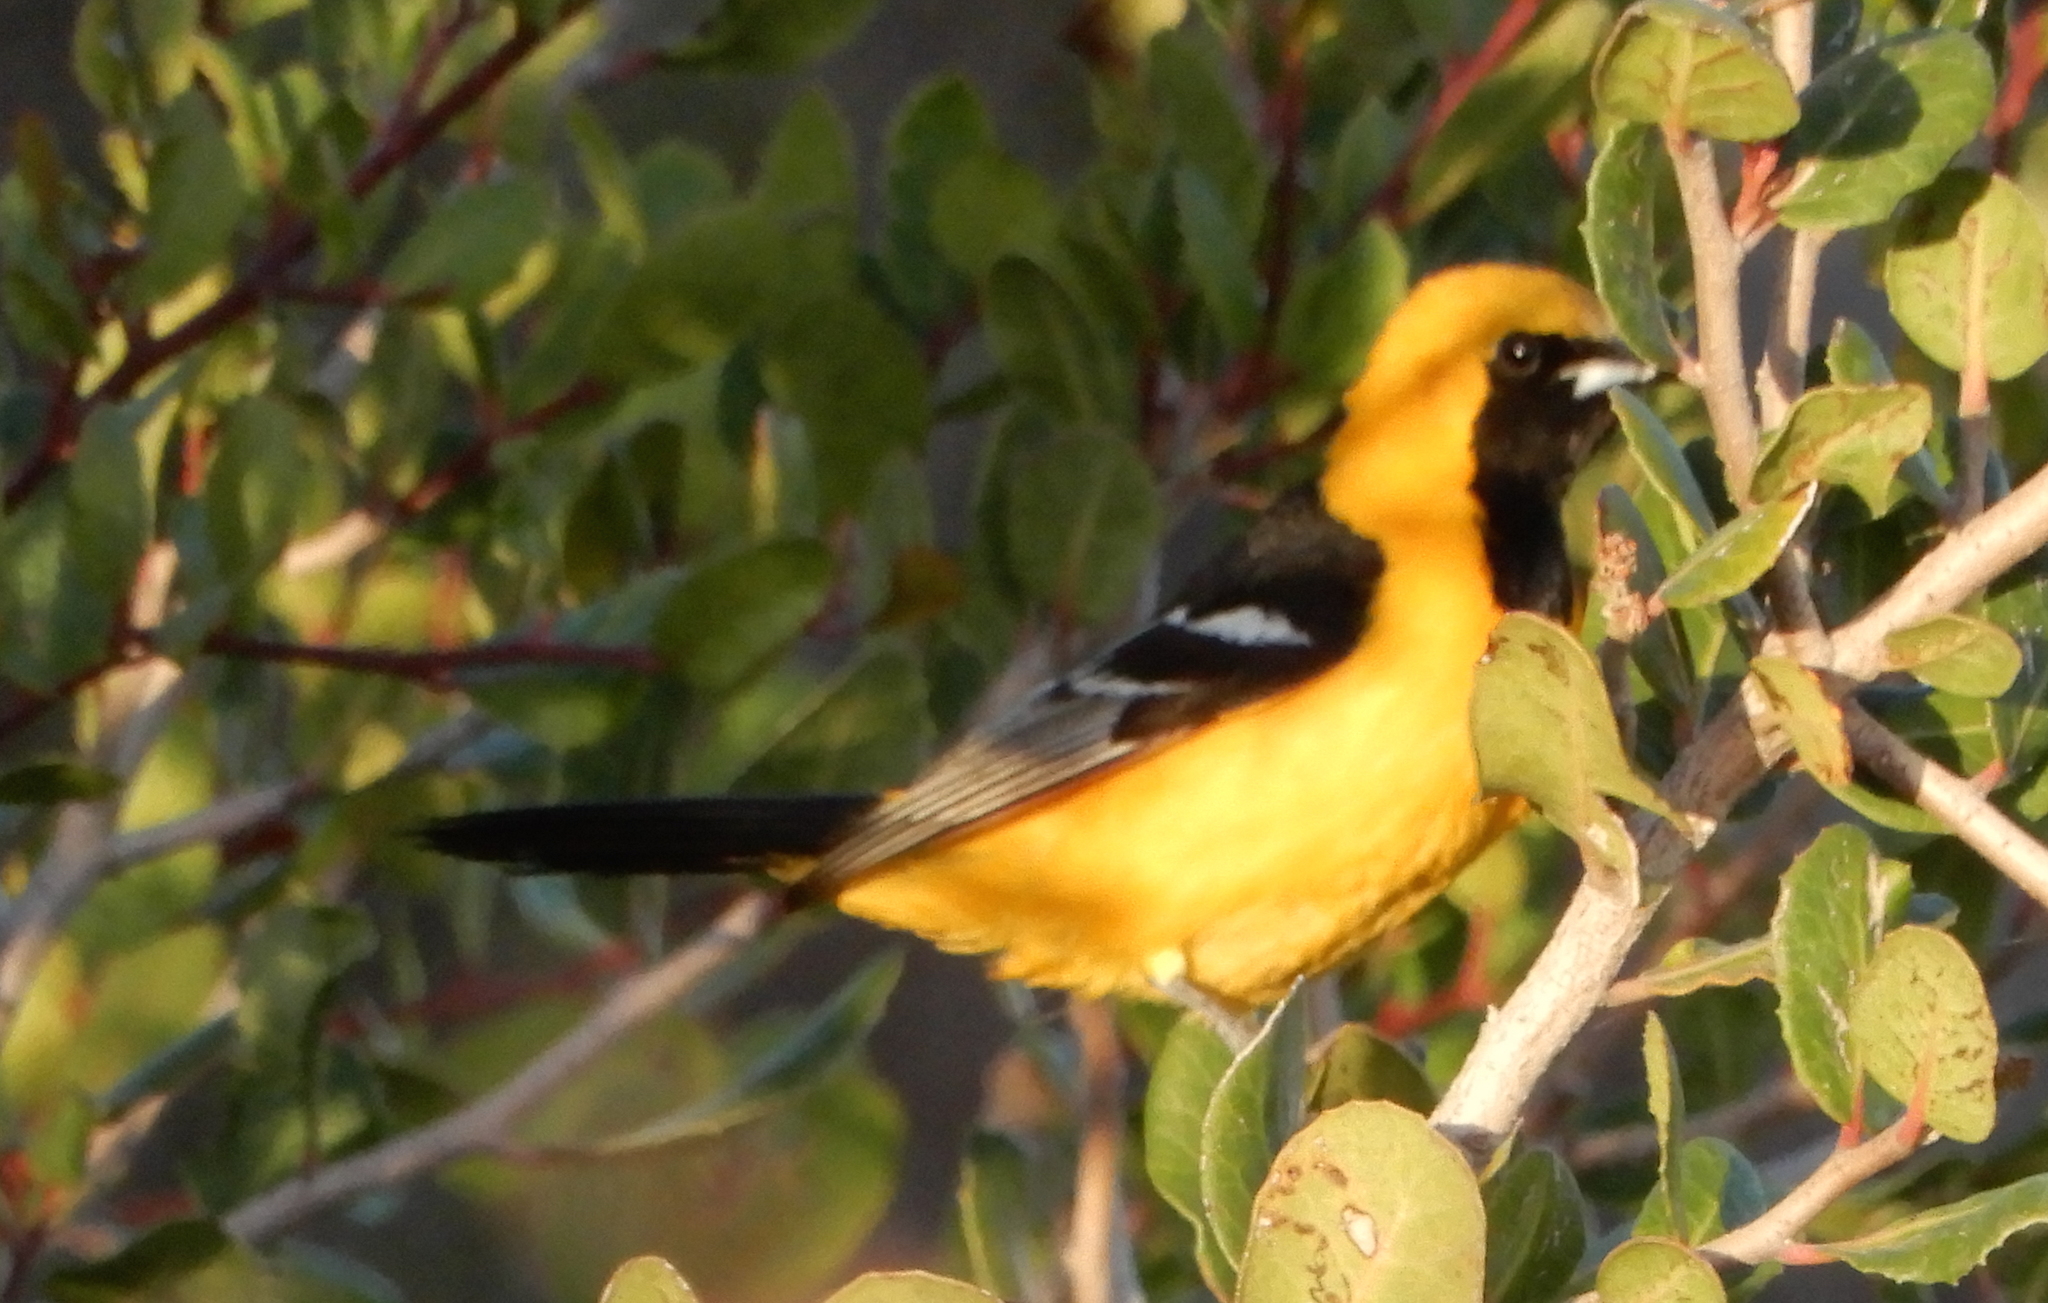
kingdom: Animalia
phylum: Chordata
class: Aves
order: Passeriformes
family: Icteridae
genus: Icterus
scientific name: Icterus cucullatus
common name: Hooded oriole
